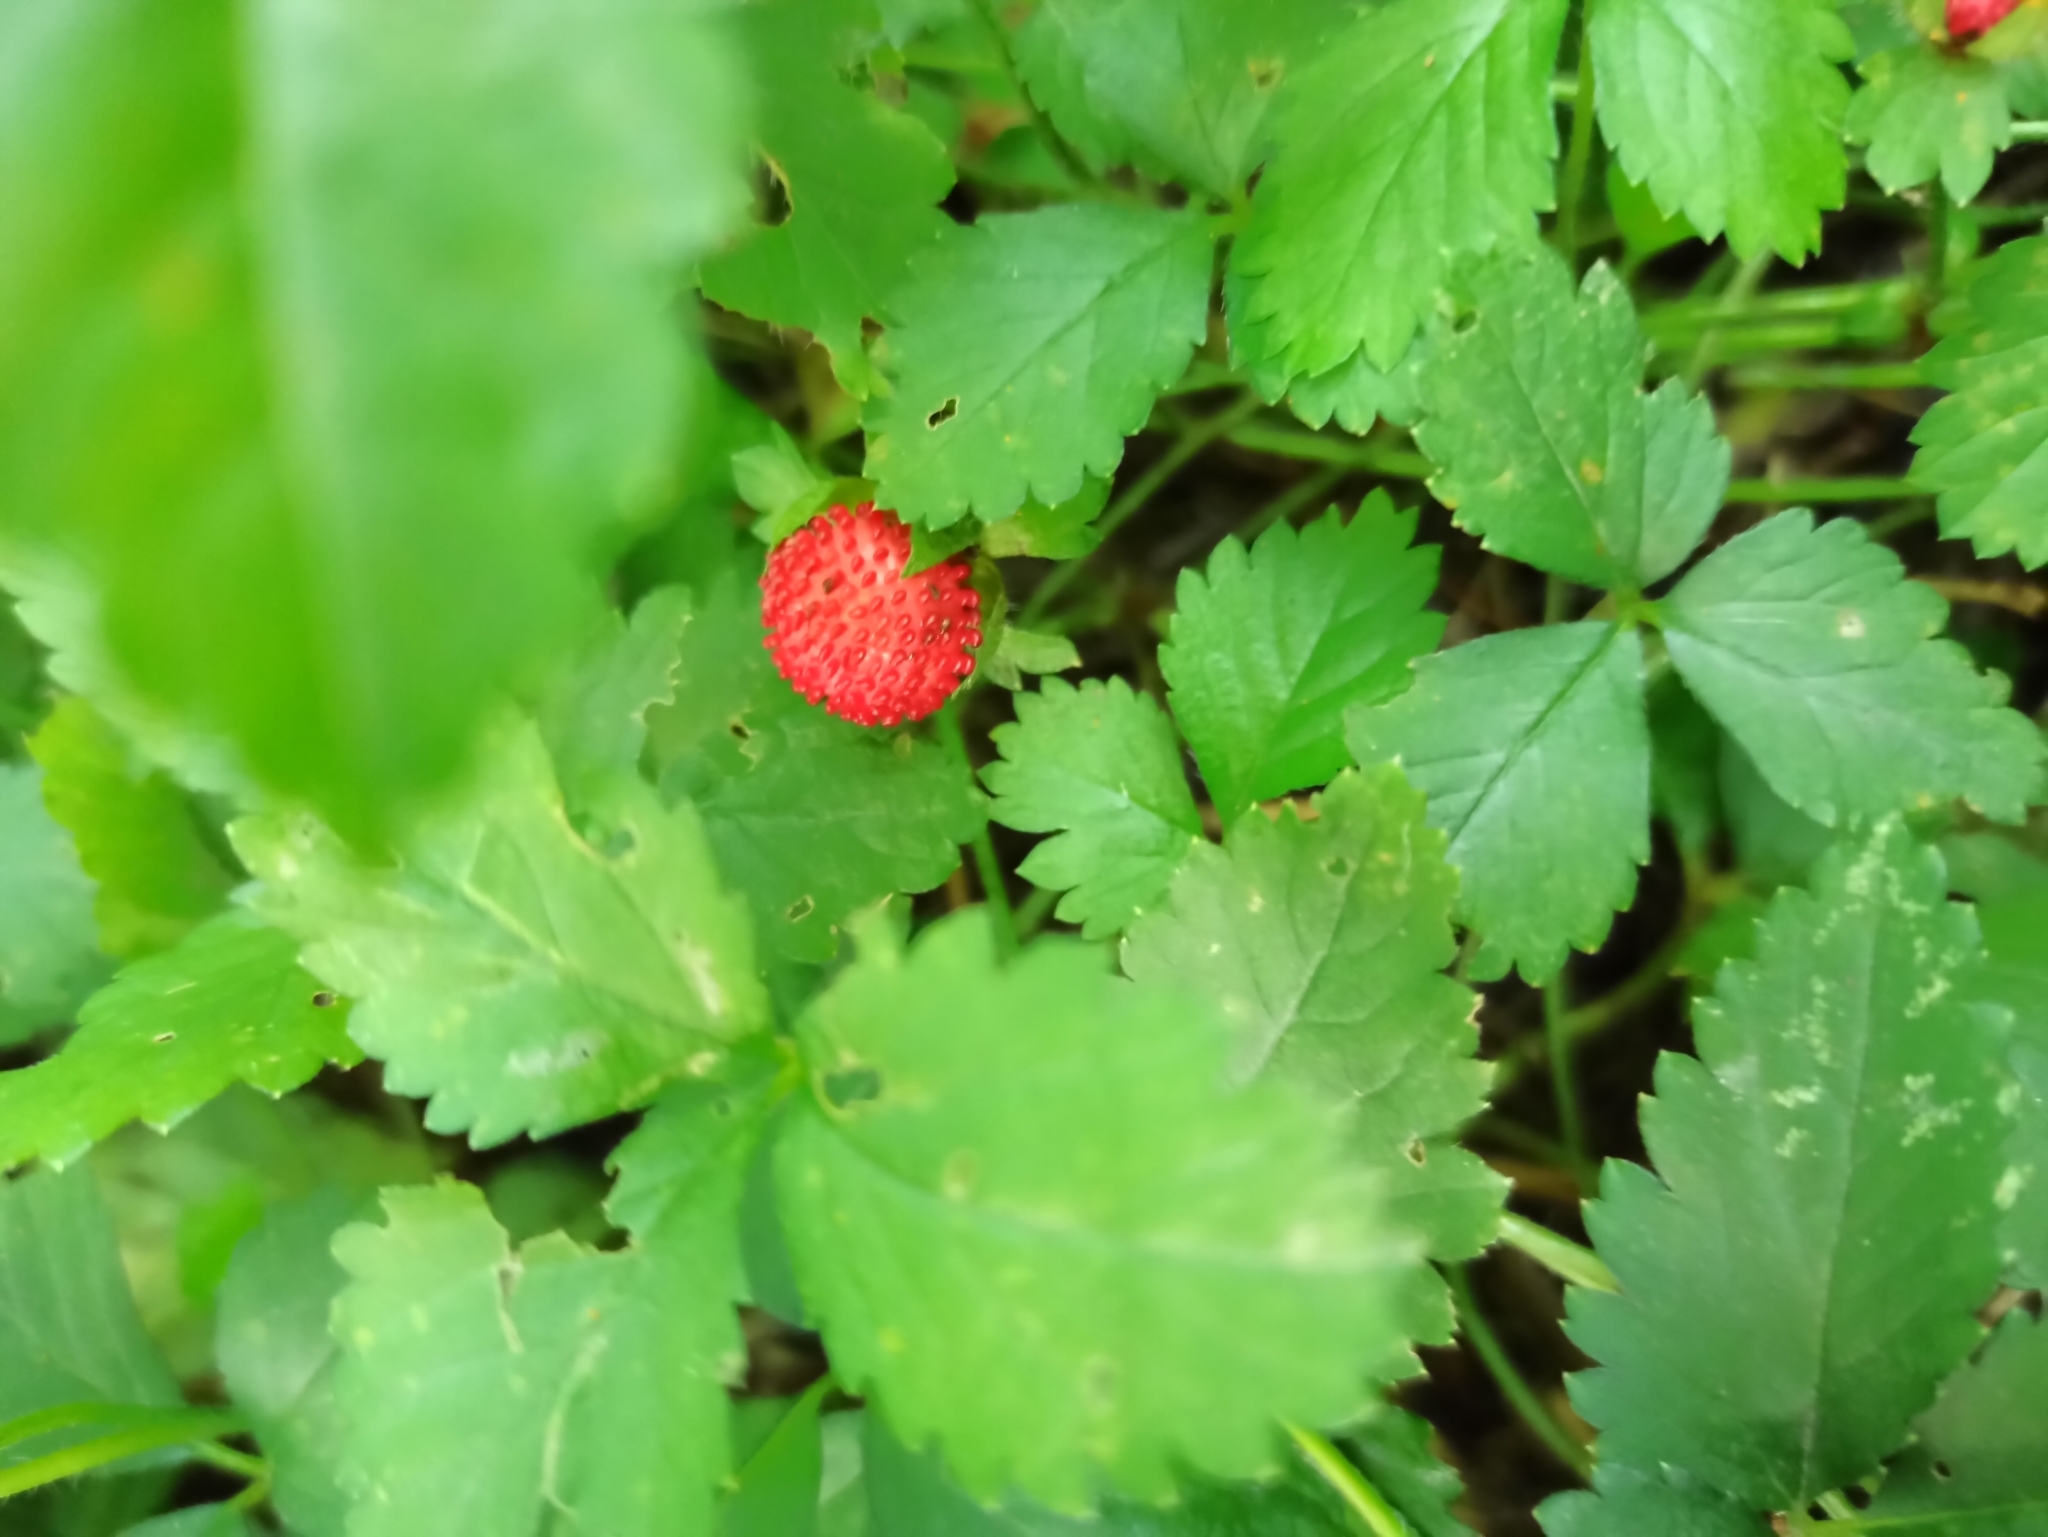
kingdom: Plantae
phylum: Tracheophyta
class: Magnoliopsida
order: Rosales
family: Rosaceae
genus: Potentilla
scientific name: Potentilla indica
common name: Yellow-flowered strawberry
